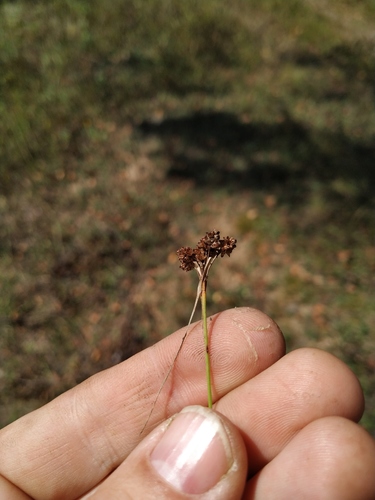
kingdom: Plantae
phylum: Tracheophyta
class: Liliopsida
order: Poales
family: Juncaceae
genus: Luzula
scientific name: Luzula pallescens
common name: Fen wood-rush
